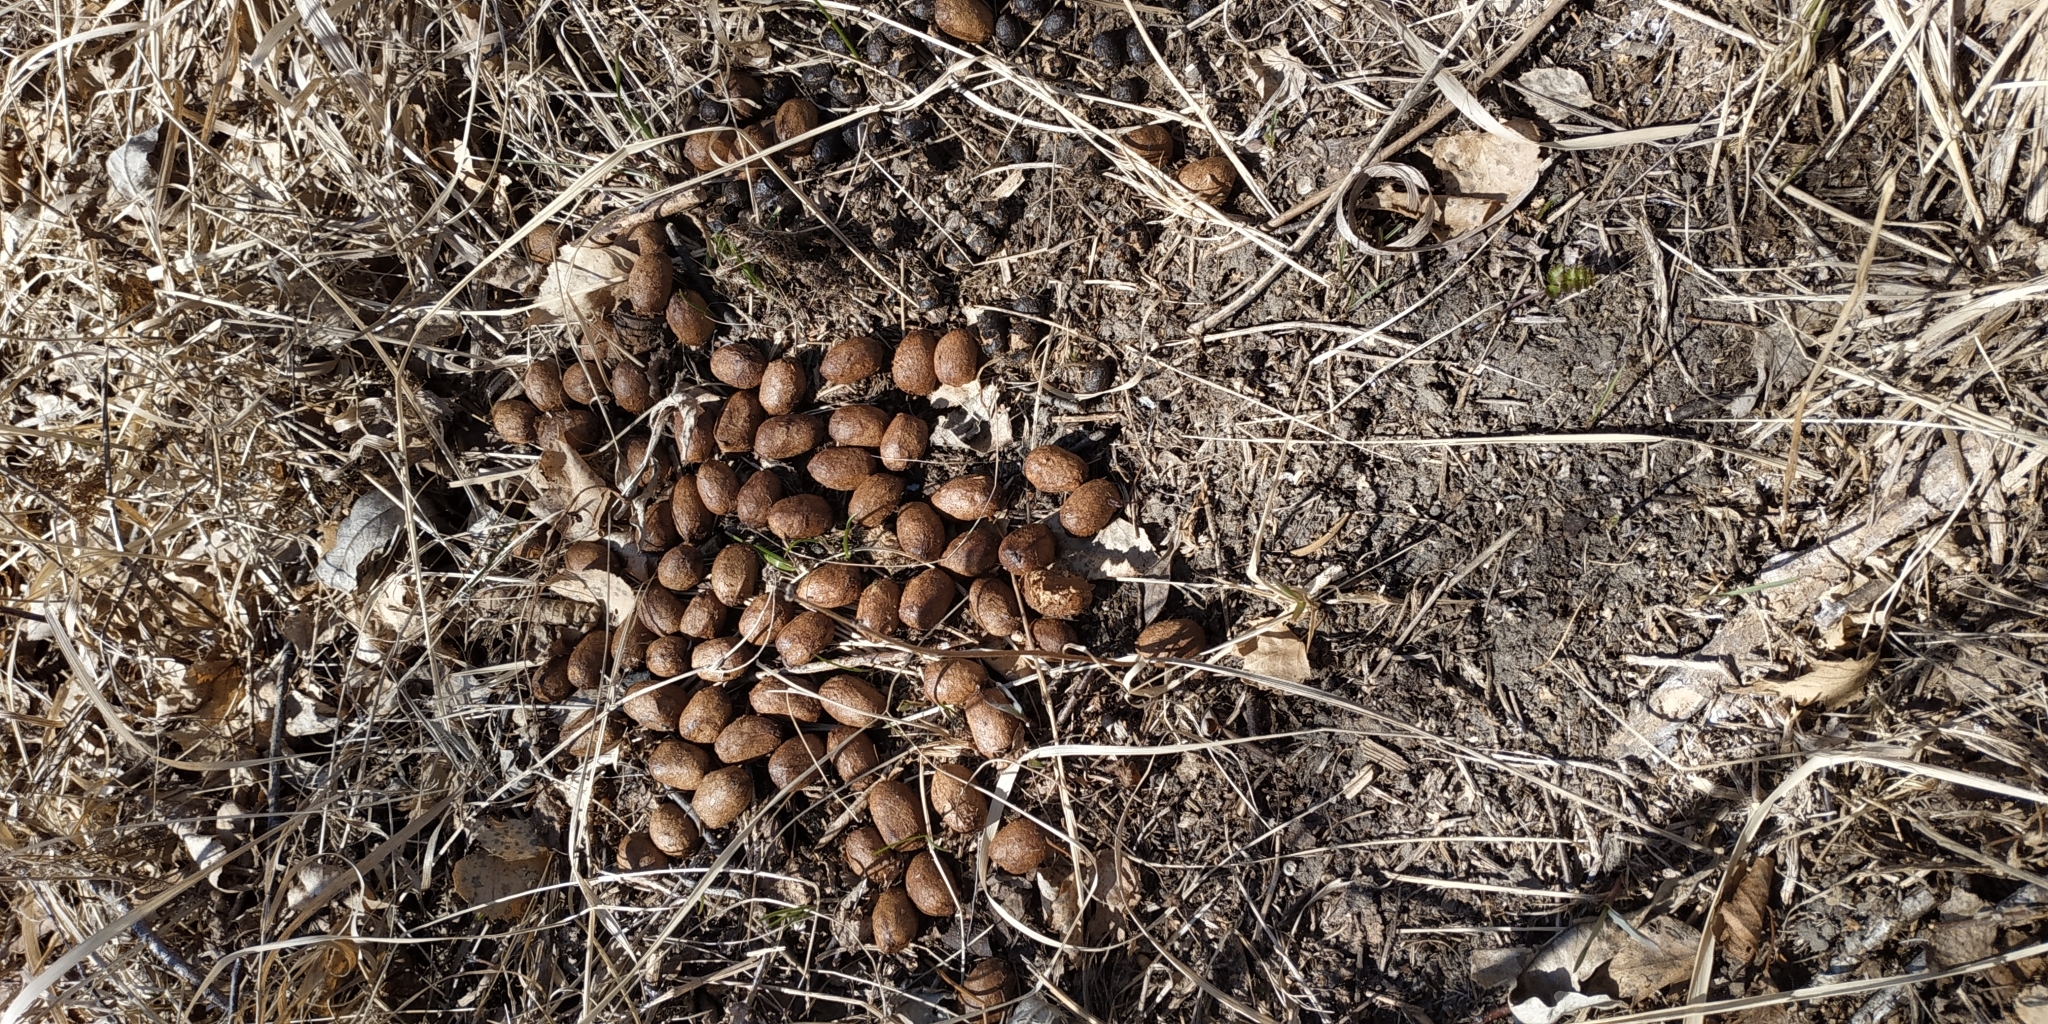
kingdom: Animalia
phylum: Chordata
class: Mammalia
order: Artiodactyla
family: Cervidae
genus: Capreolus
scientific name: Capreolus pygargus
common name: Siberian roe
